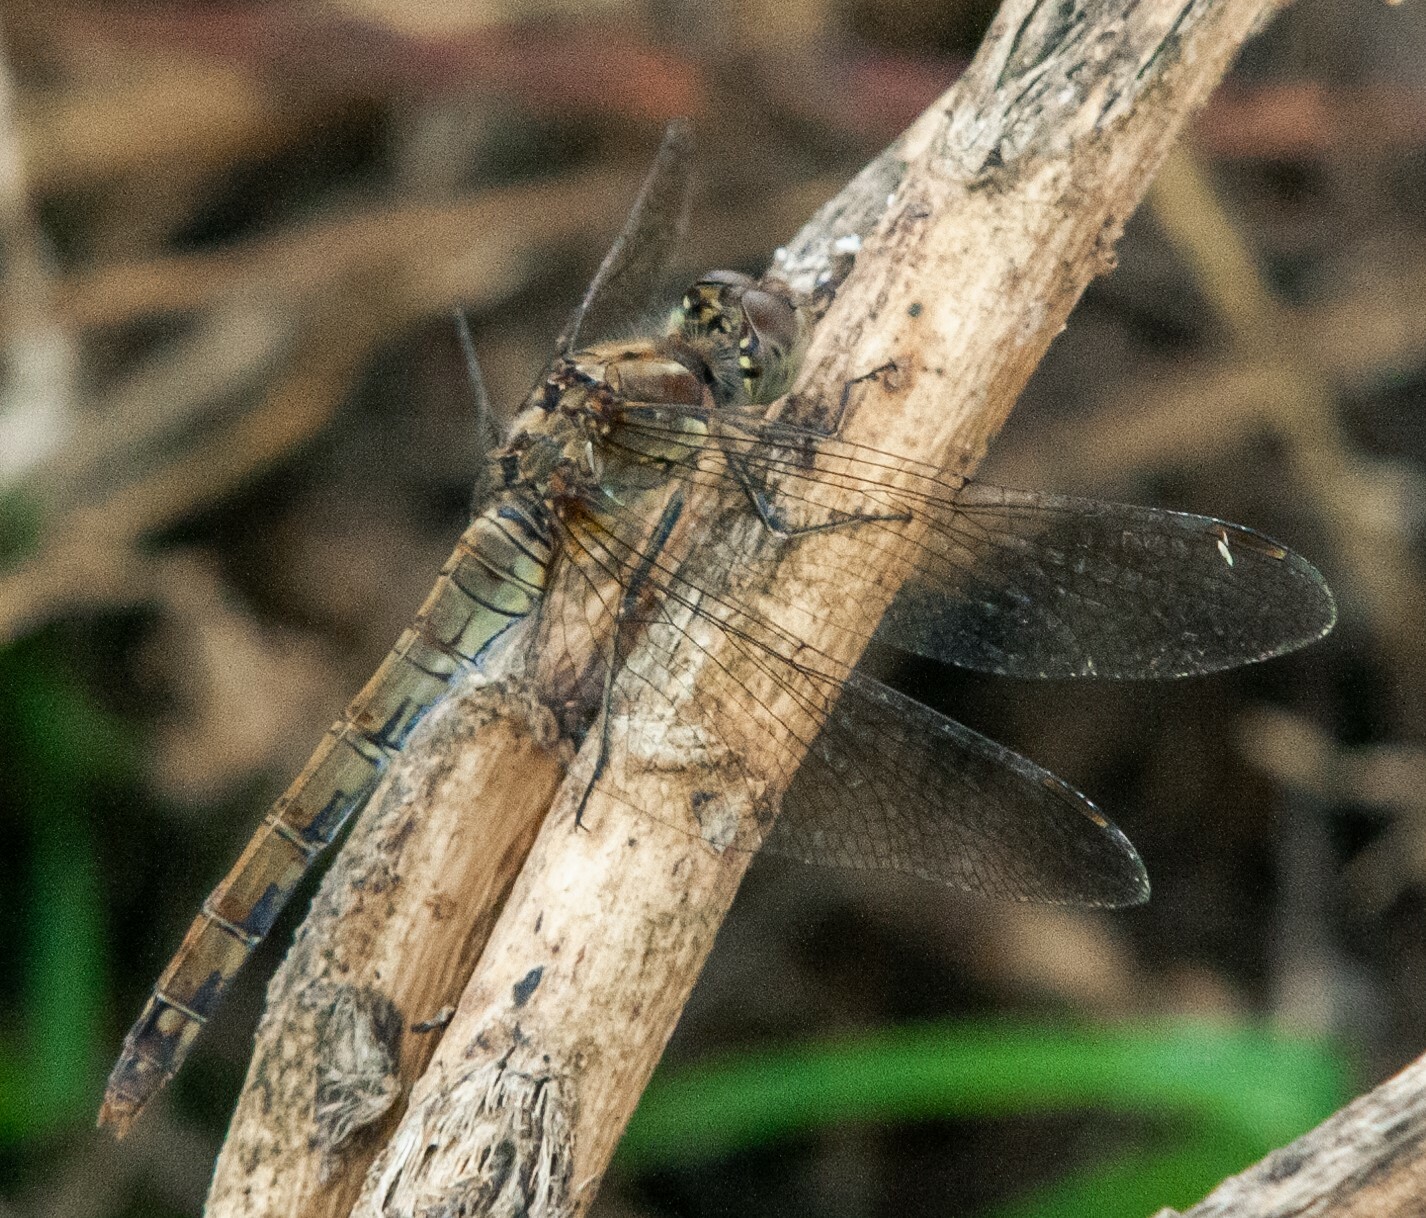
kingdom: Animalia
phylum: Arthropoda
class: Insecta
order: Odonata
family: Libellulidae
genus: Sympetrum
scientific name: Sympetrum striolatum
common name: Common darter
